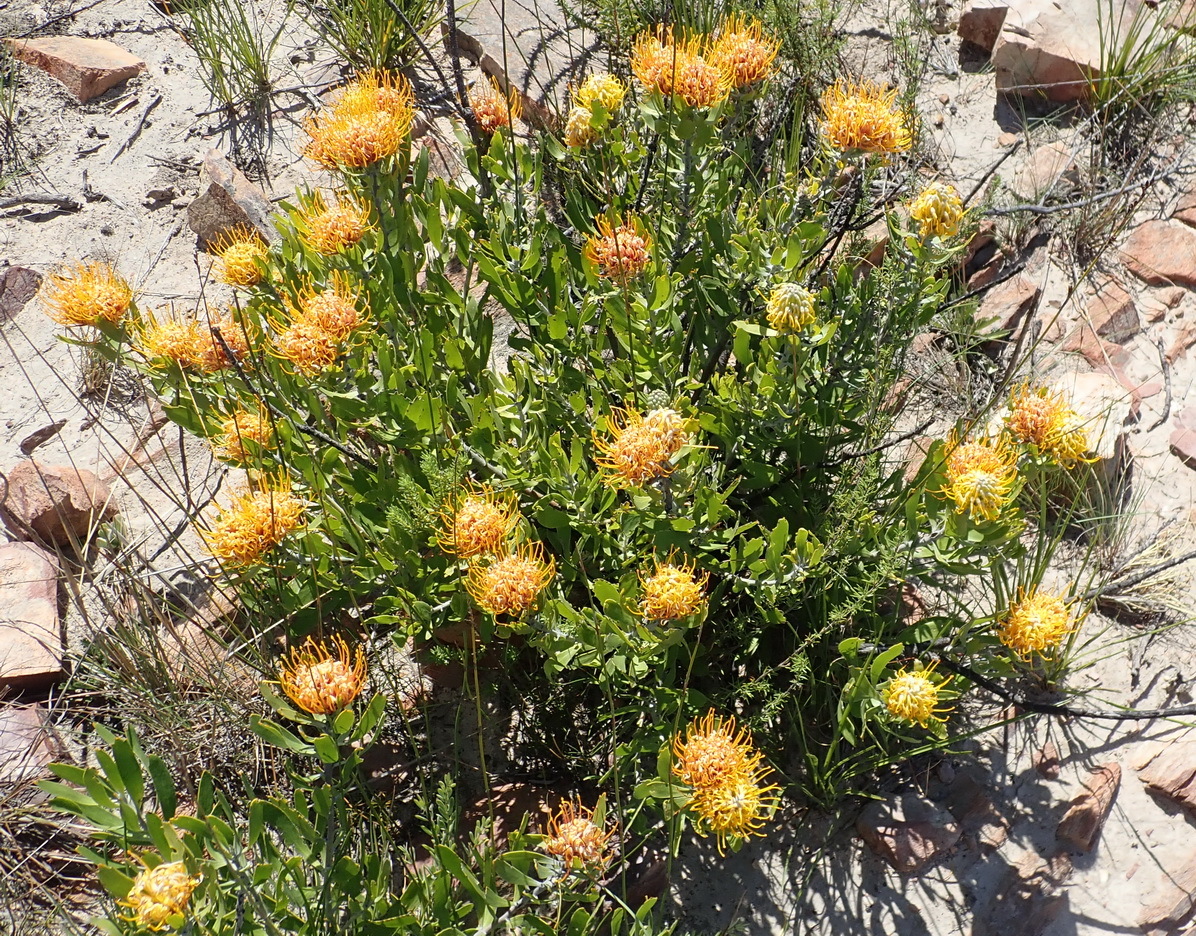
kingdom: Plantae
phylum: Tracheophyta
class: Magnoliopsida
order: Proteales
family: Proteaceae
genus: Leucospermum
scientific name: Leucospermum cuneiforme
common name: Common pincushion
